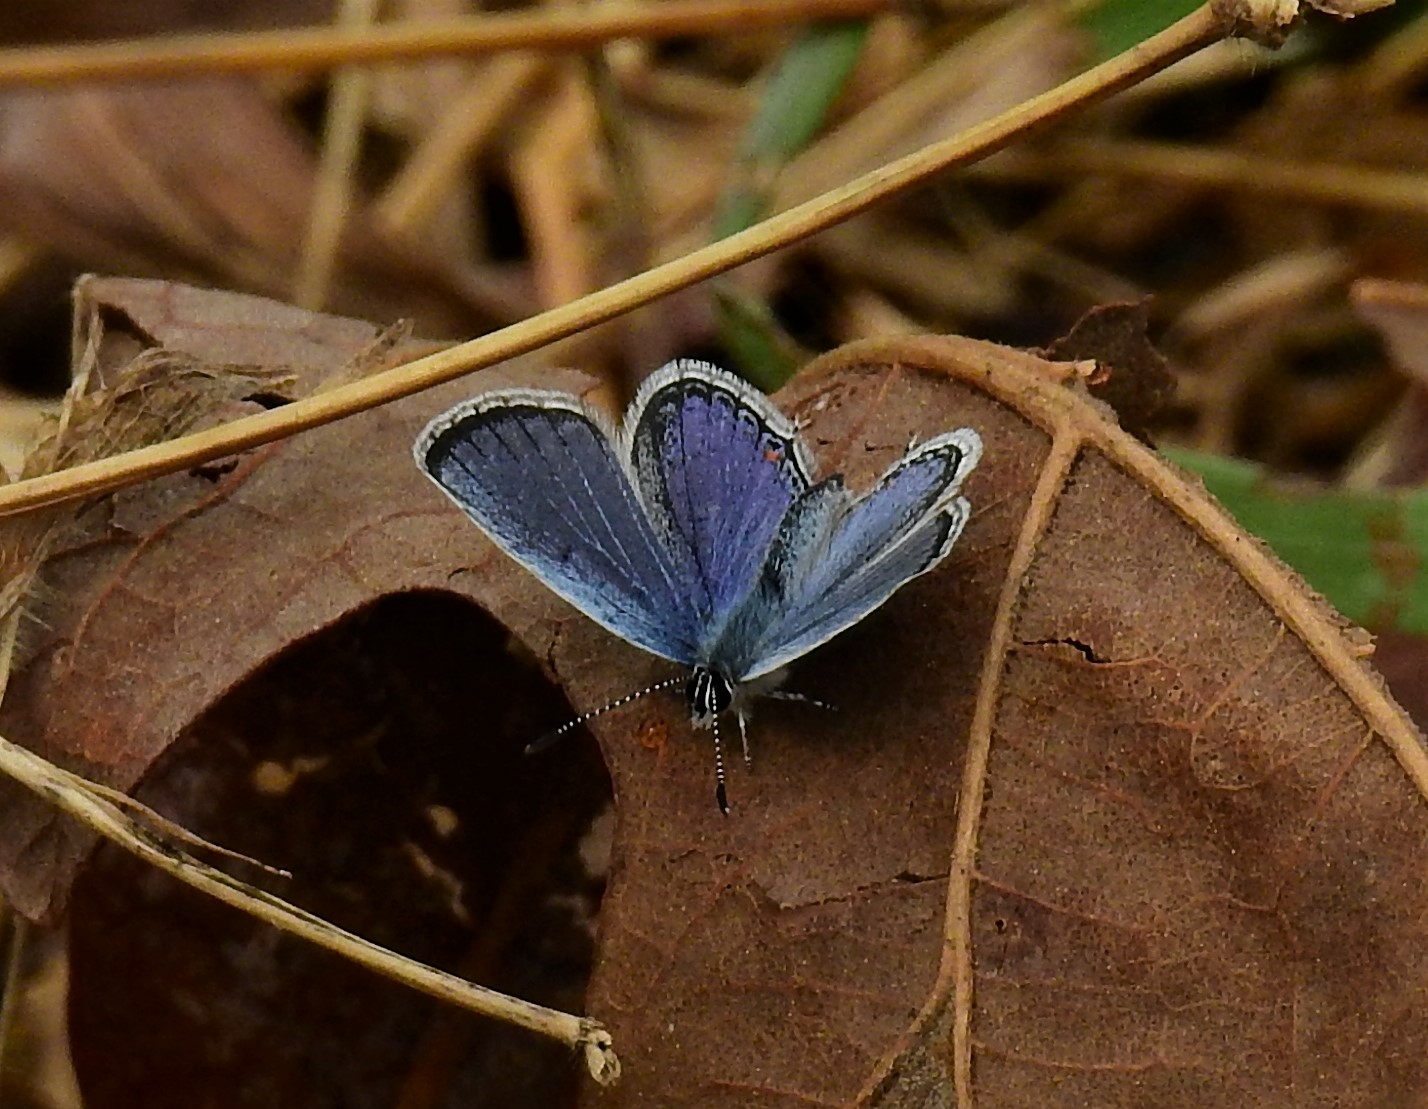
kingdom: Animalia
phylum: Arthropoda
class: Insecta
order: Lepidoptera
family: Lycaenidae
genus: Elkalyce
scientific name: Elkalyce comyntas
